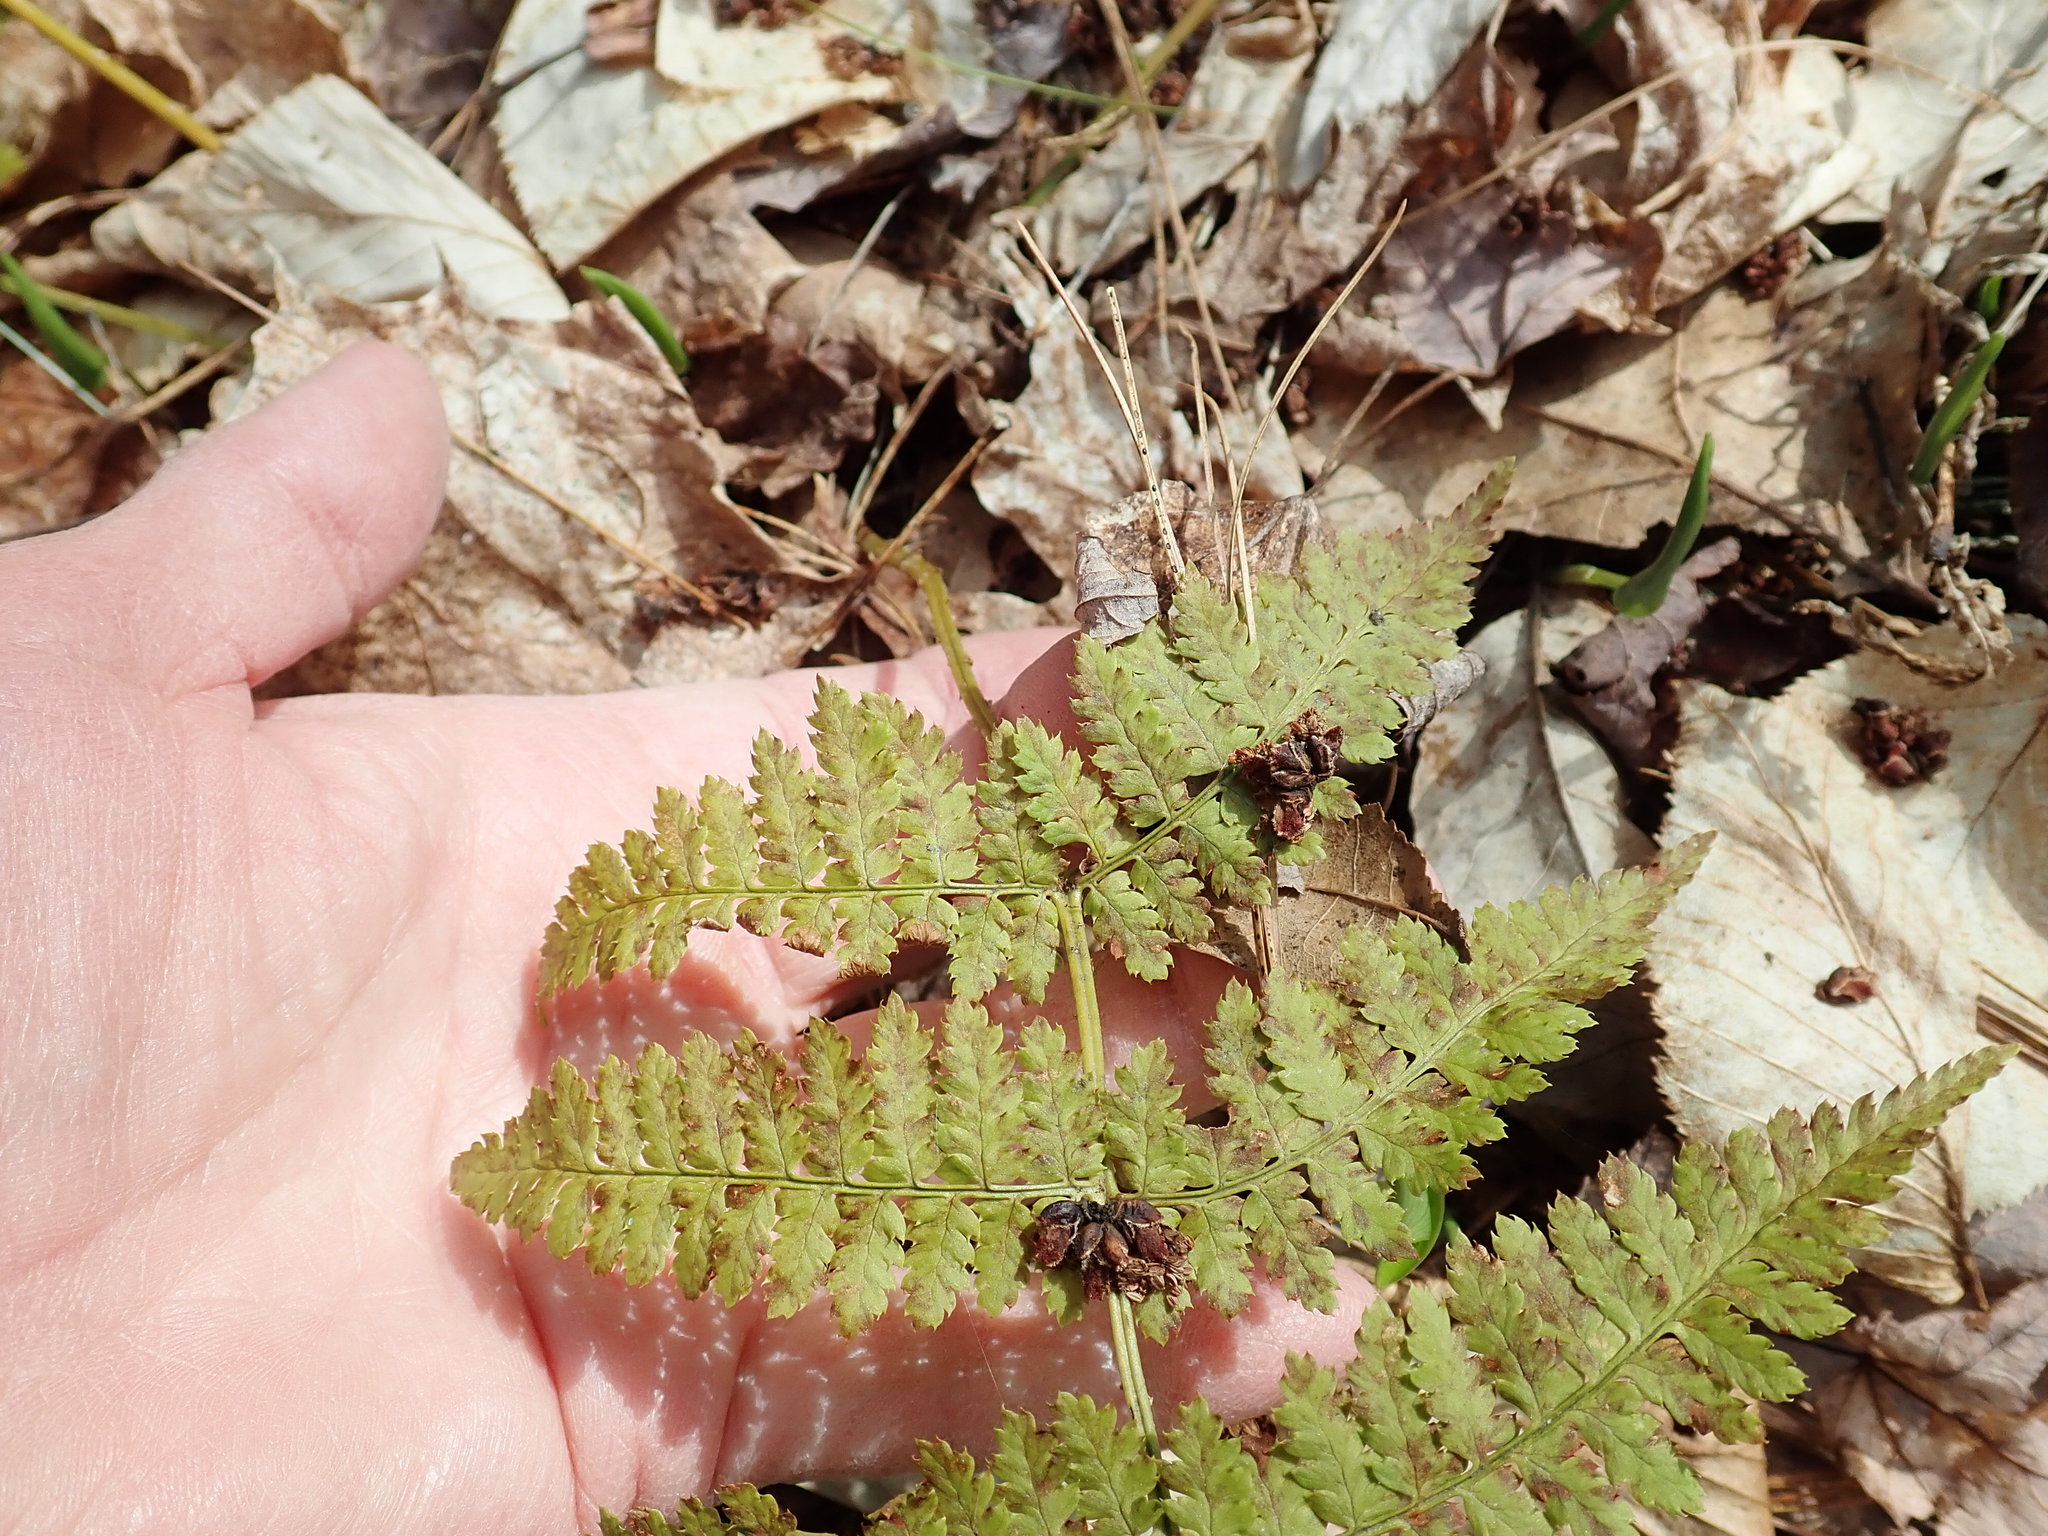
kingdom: Plantae
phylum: Tracheophyta
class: Polypodiopsida
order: Polypodiales
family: Dryopteridaceae
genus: Dryopteris
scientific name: Dryopteris intermedia
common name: Evergreen wood fern
